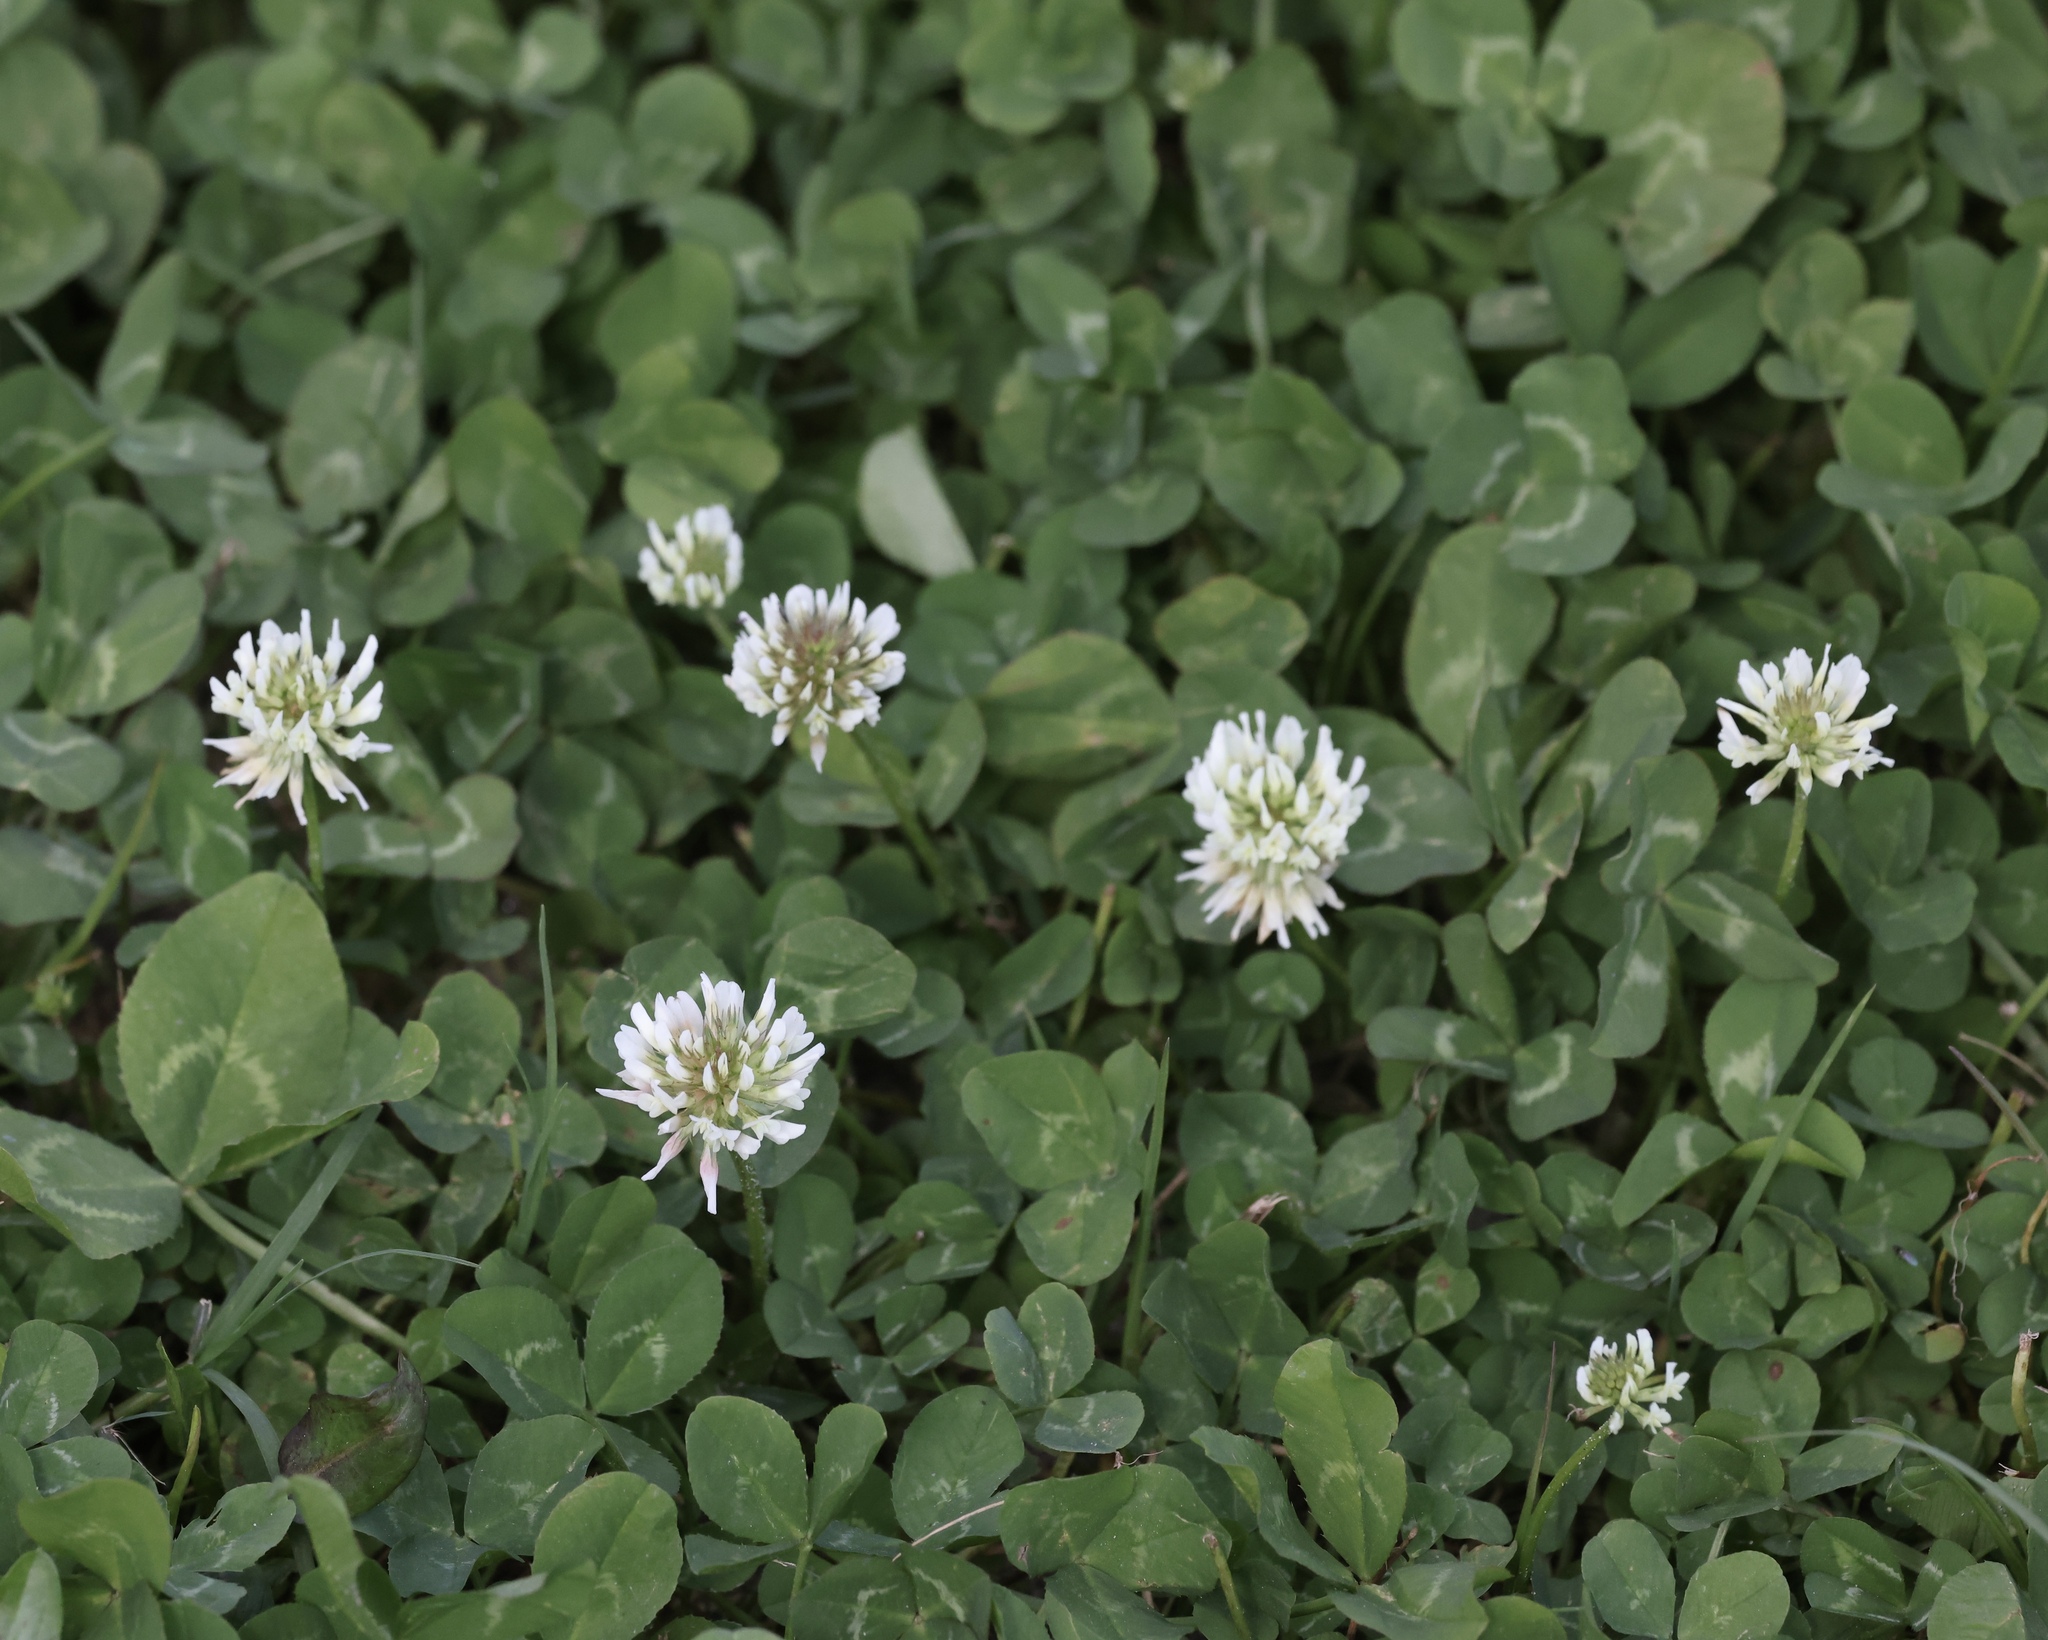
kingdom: Plantae
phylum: Tracheophyta
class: Magnoliopsida
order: Fabales
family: Fabaceae
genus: Trifolium
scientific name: Trifolium repens
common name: White clover
